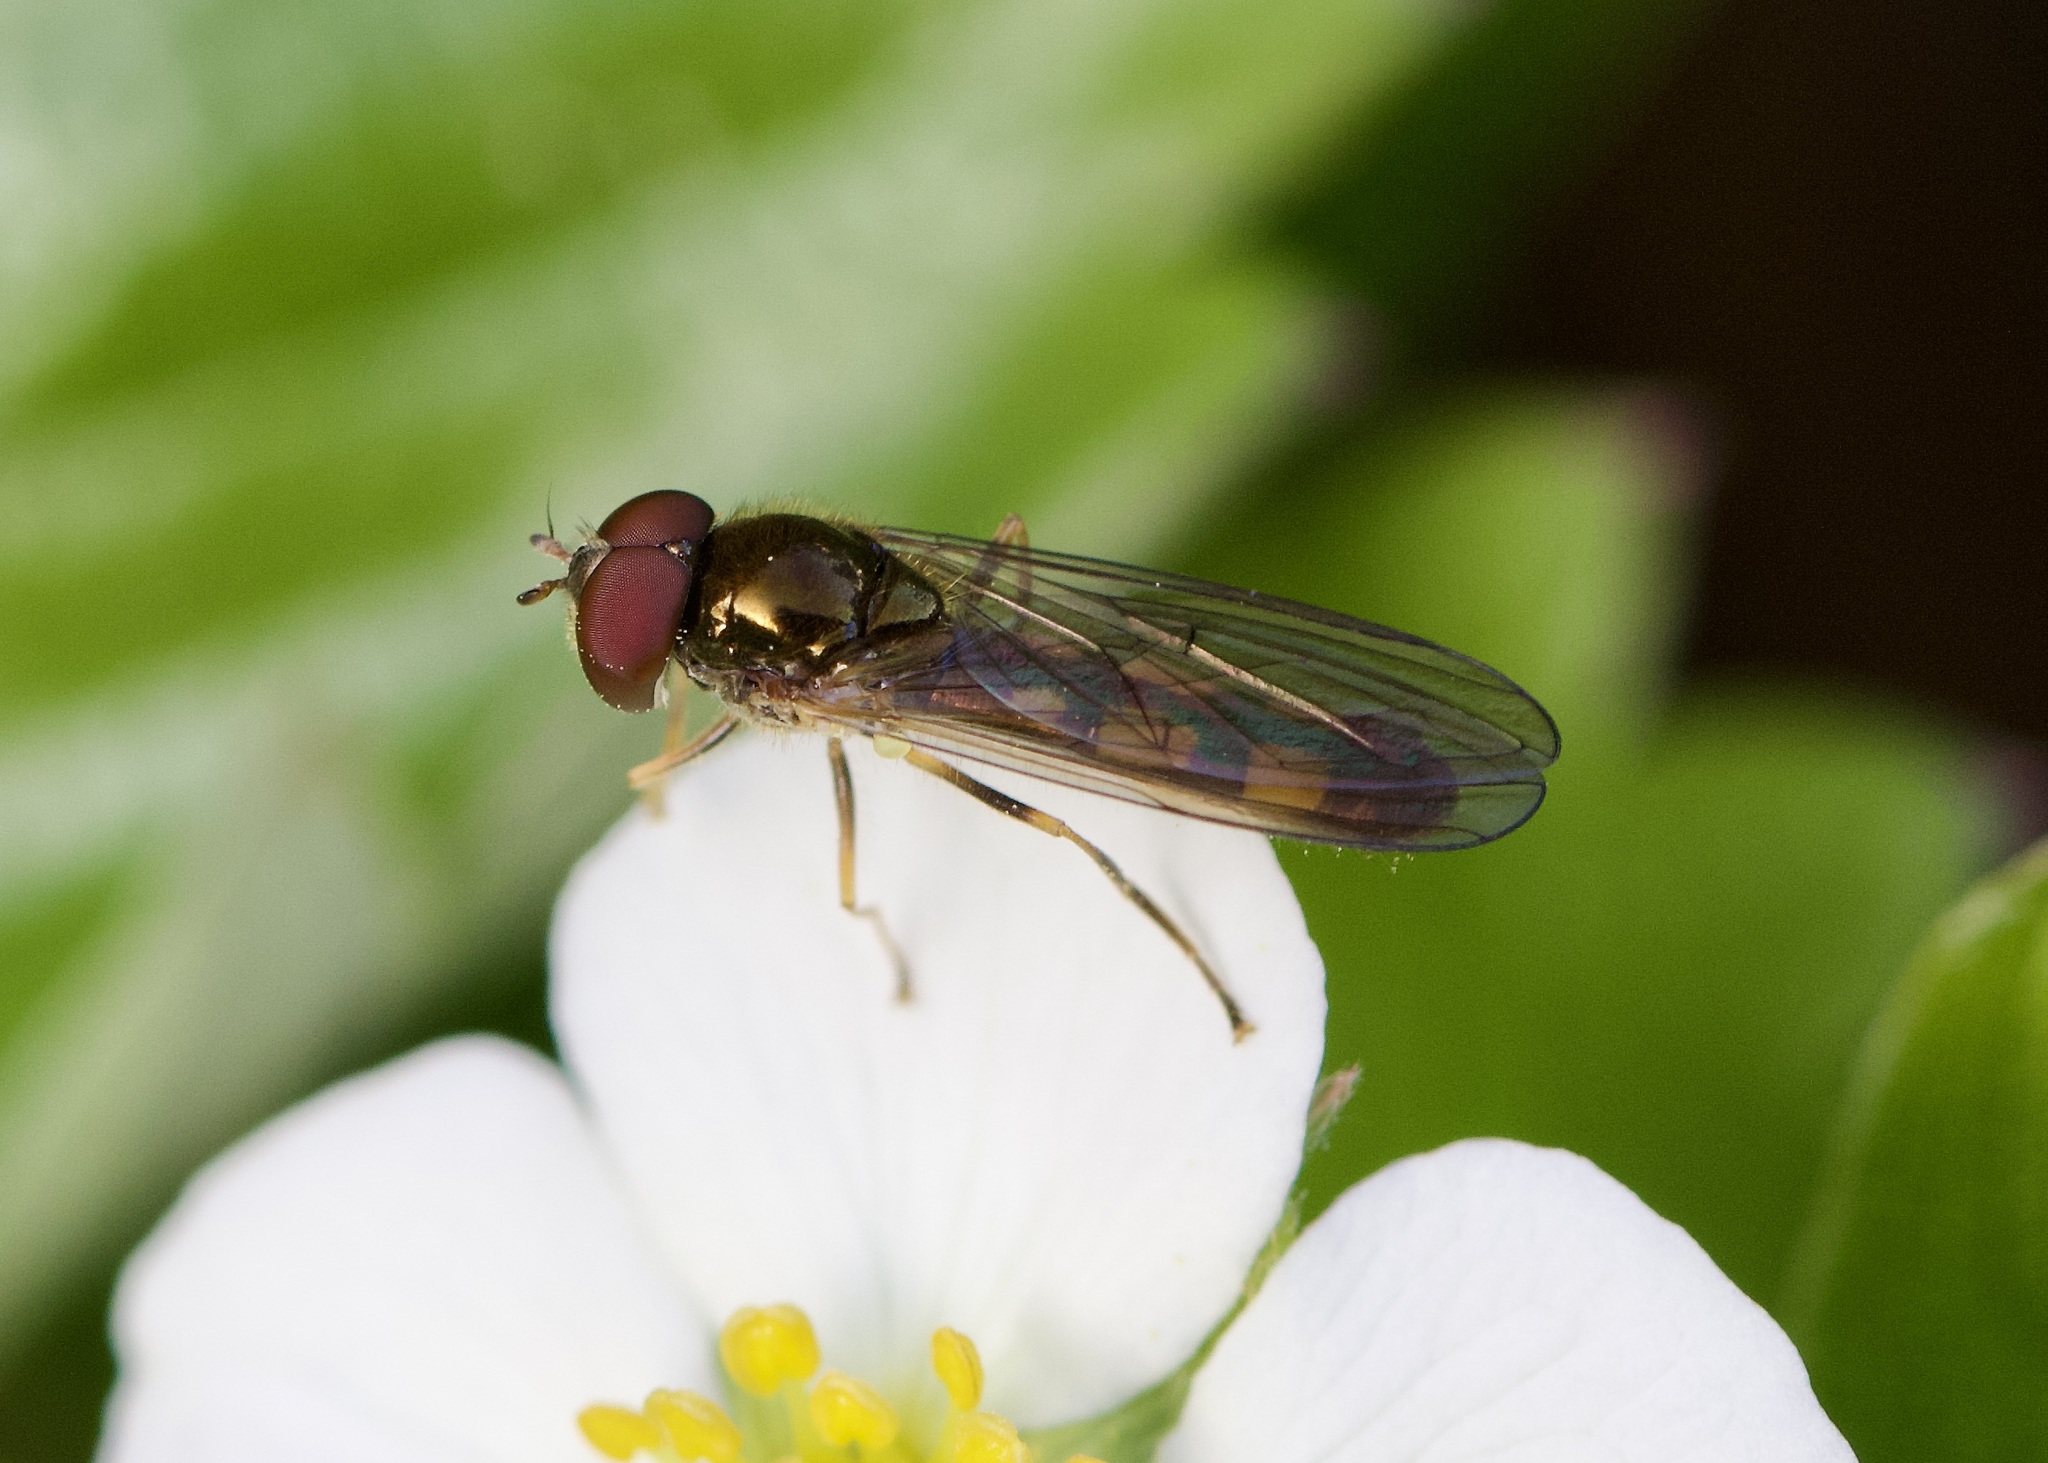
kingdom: Animalia
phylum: Arthropoda
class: Insecta
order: Diptera
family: Syrphidae
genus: Melanostoma
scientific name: Melanostoma scalare
